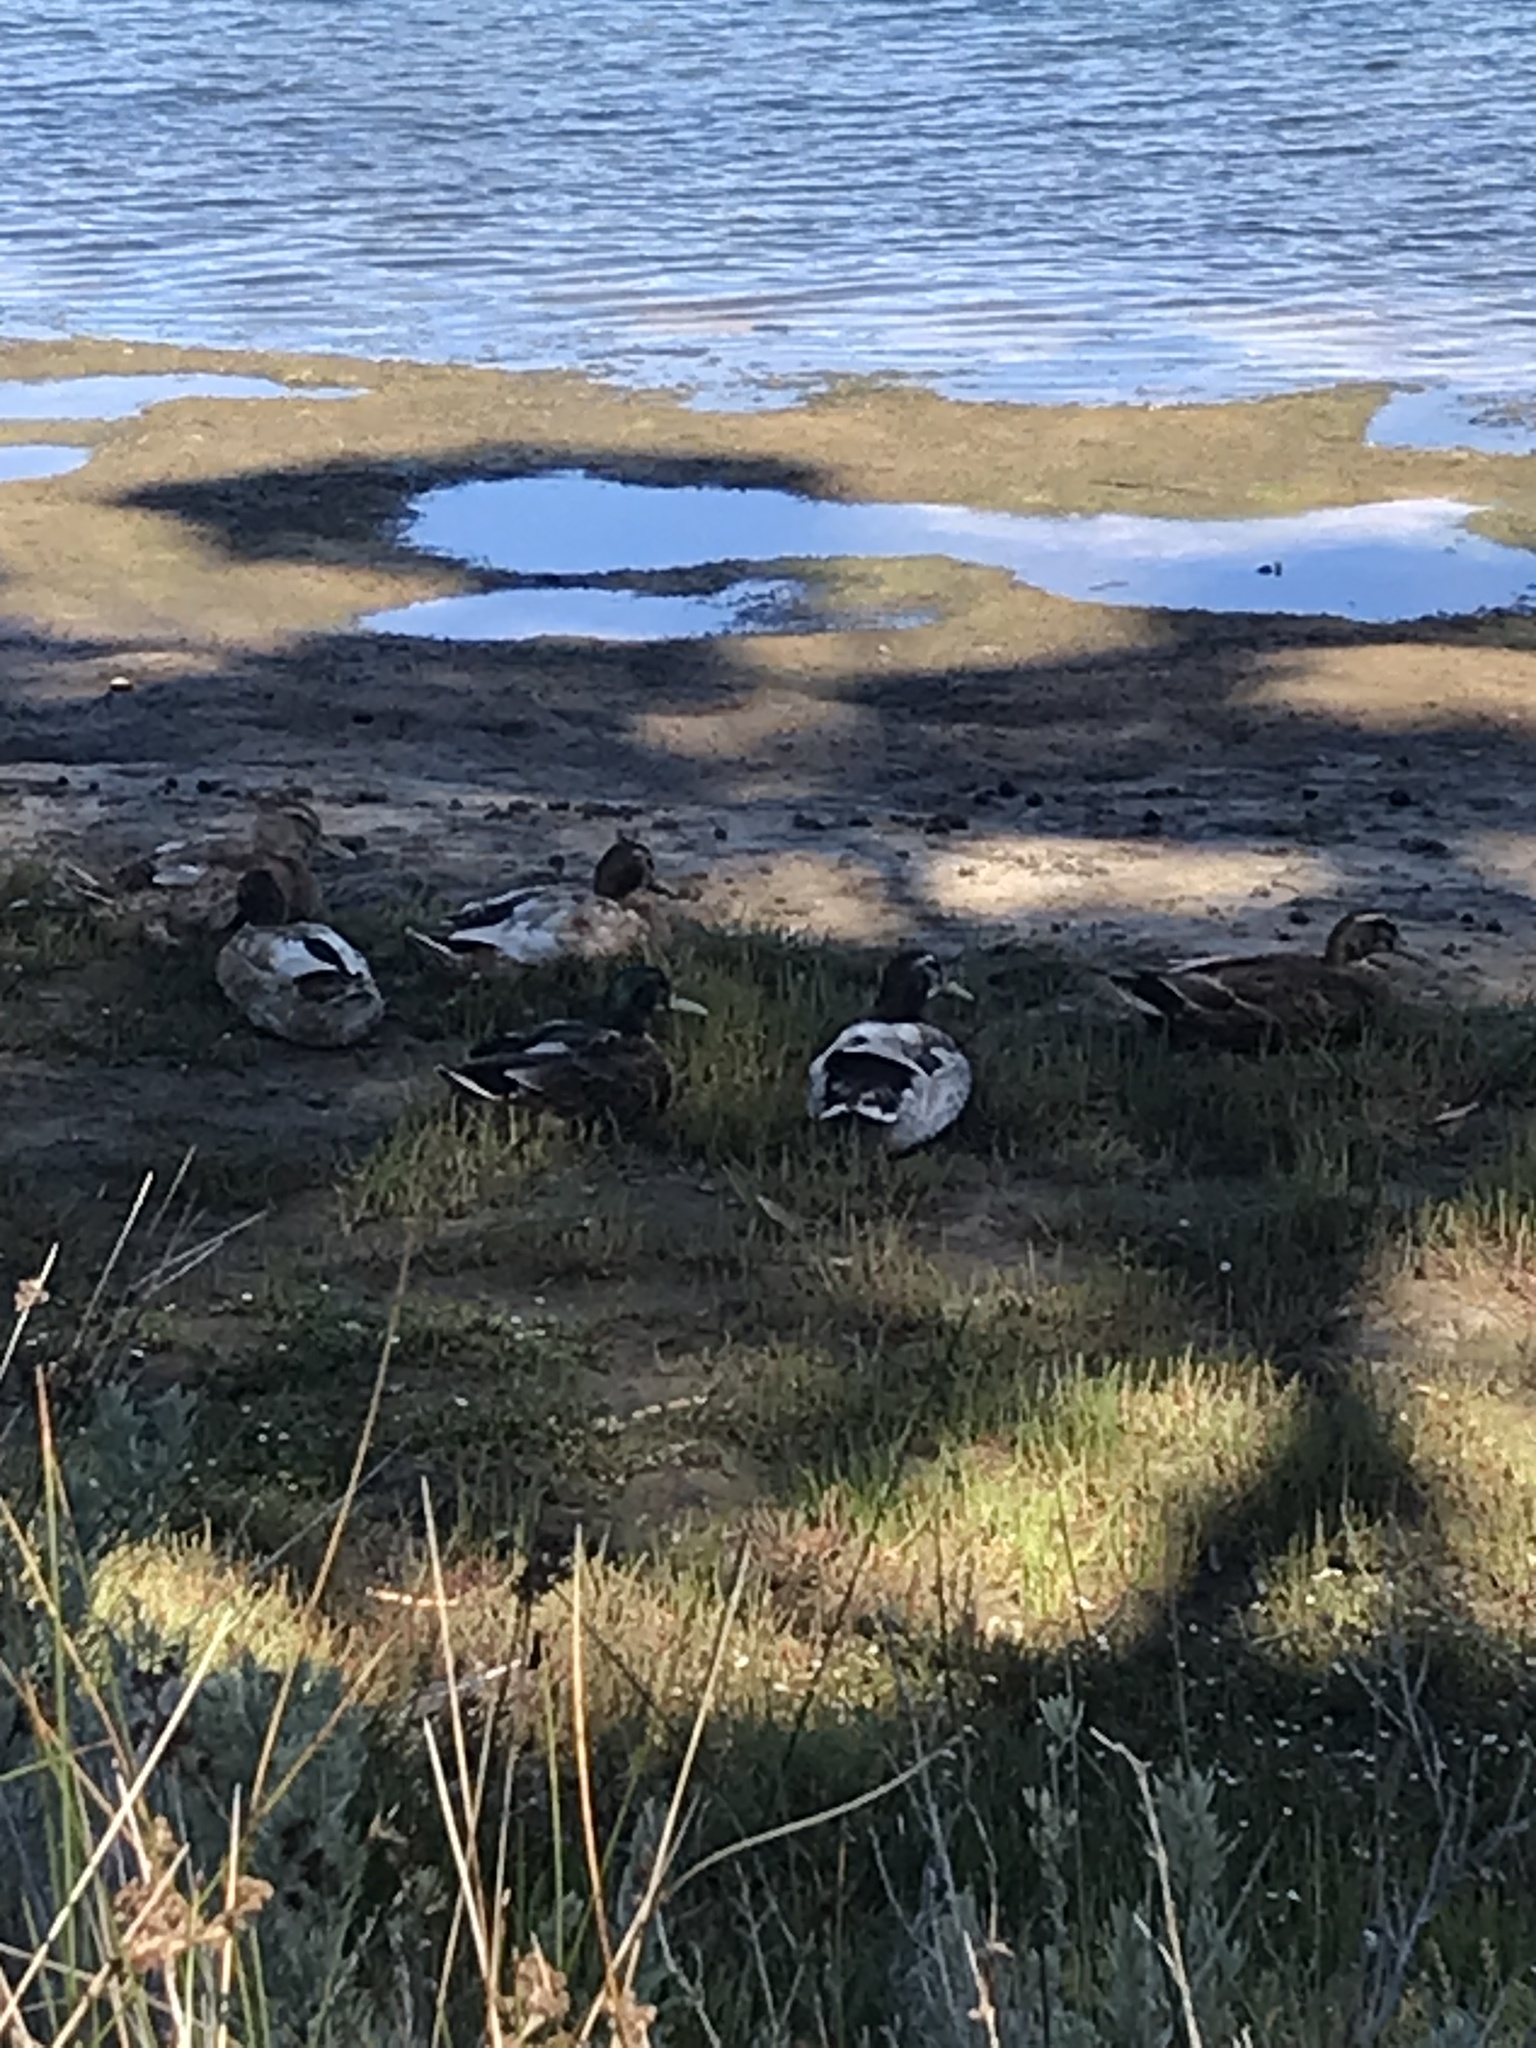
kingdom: Animalia
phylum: Chordata
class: Aves
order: Anseriformes
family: Anatidae
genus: Anas
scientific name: Anas platyrhynchos
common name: Mallard
